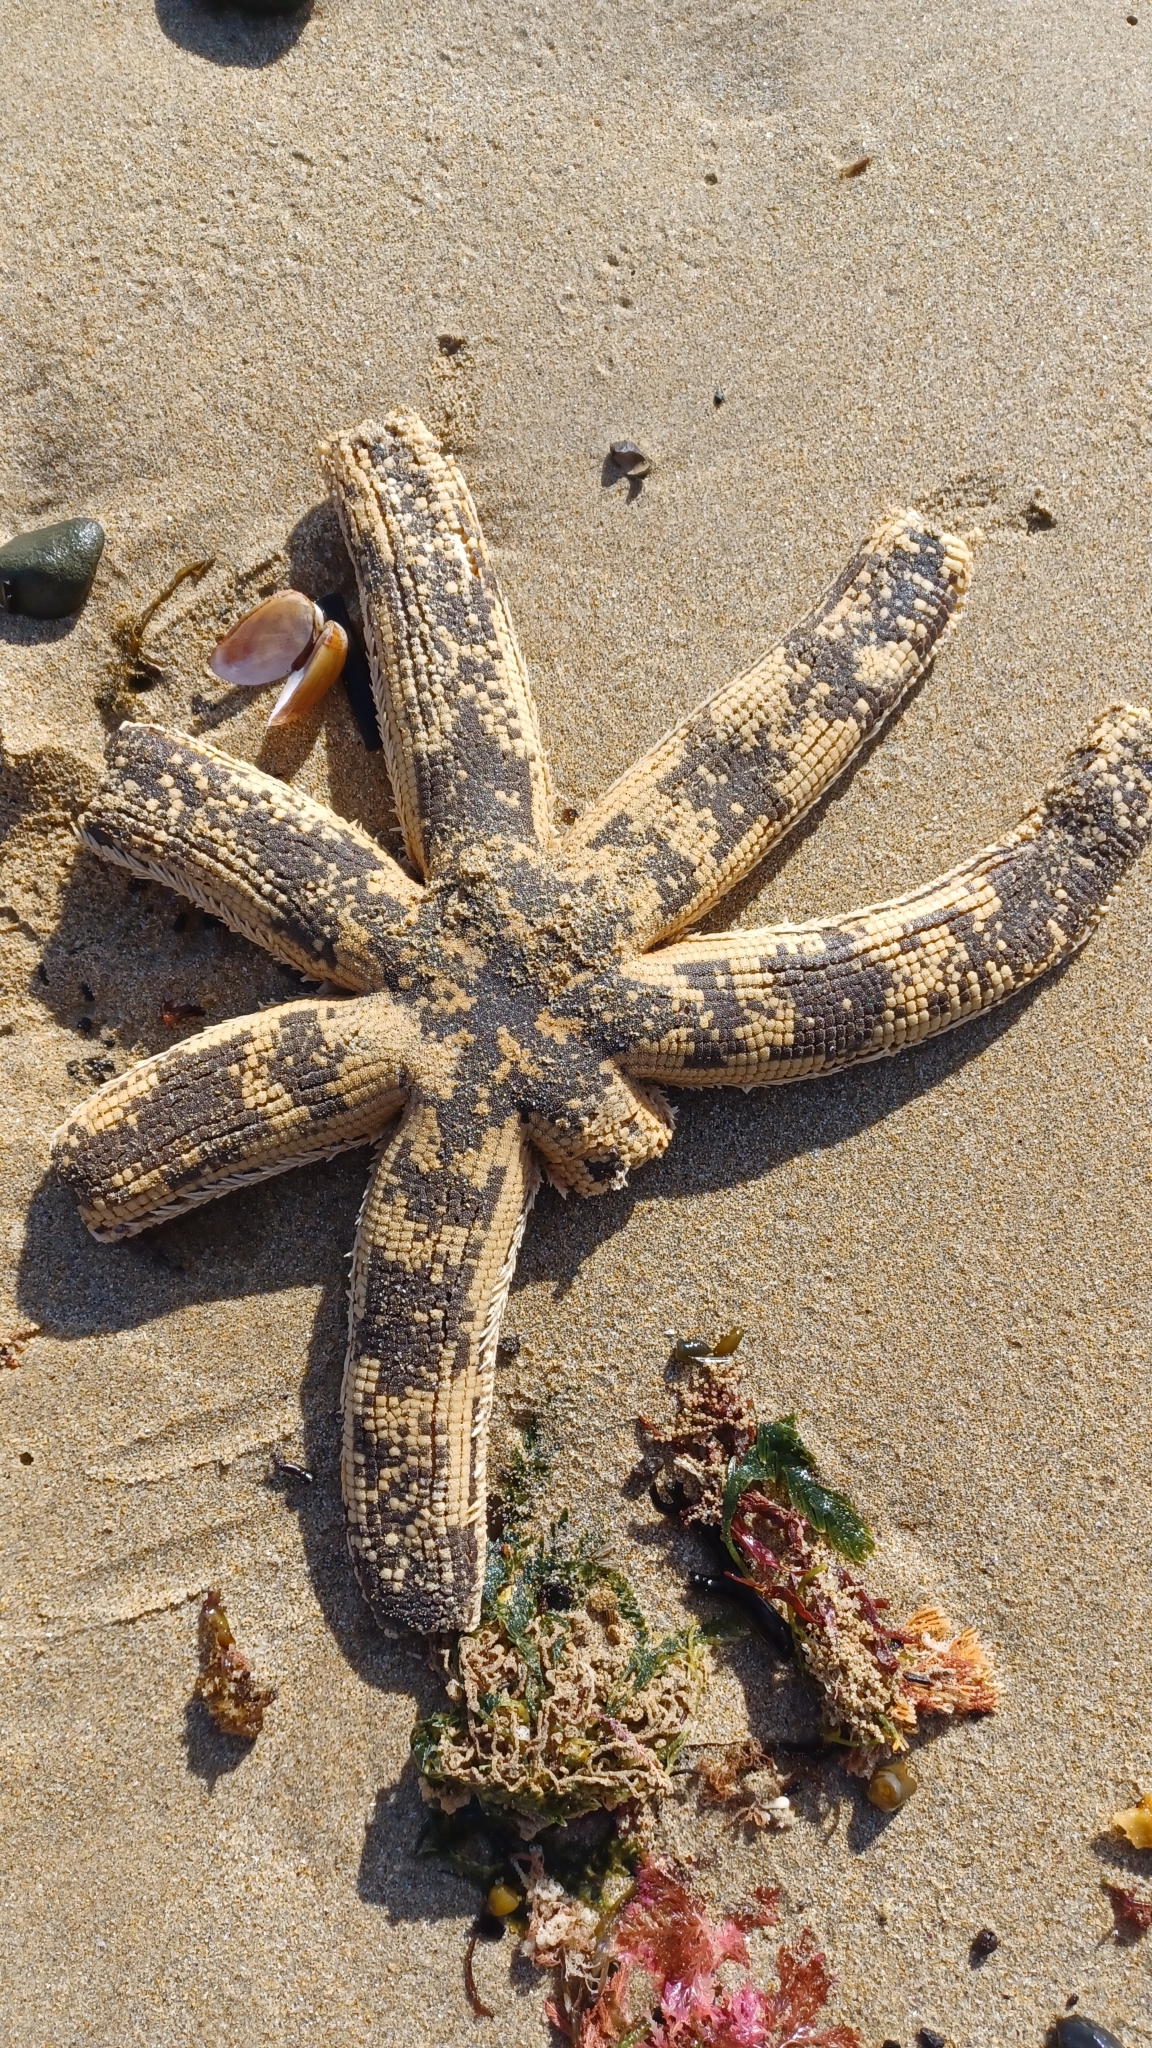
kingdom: Animalia
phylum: Echinodermata
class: Asteroidea
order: Paxillosida
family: Luidiidae
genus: Luidia
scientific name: Luidia australiae
